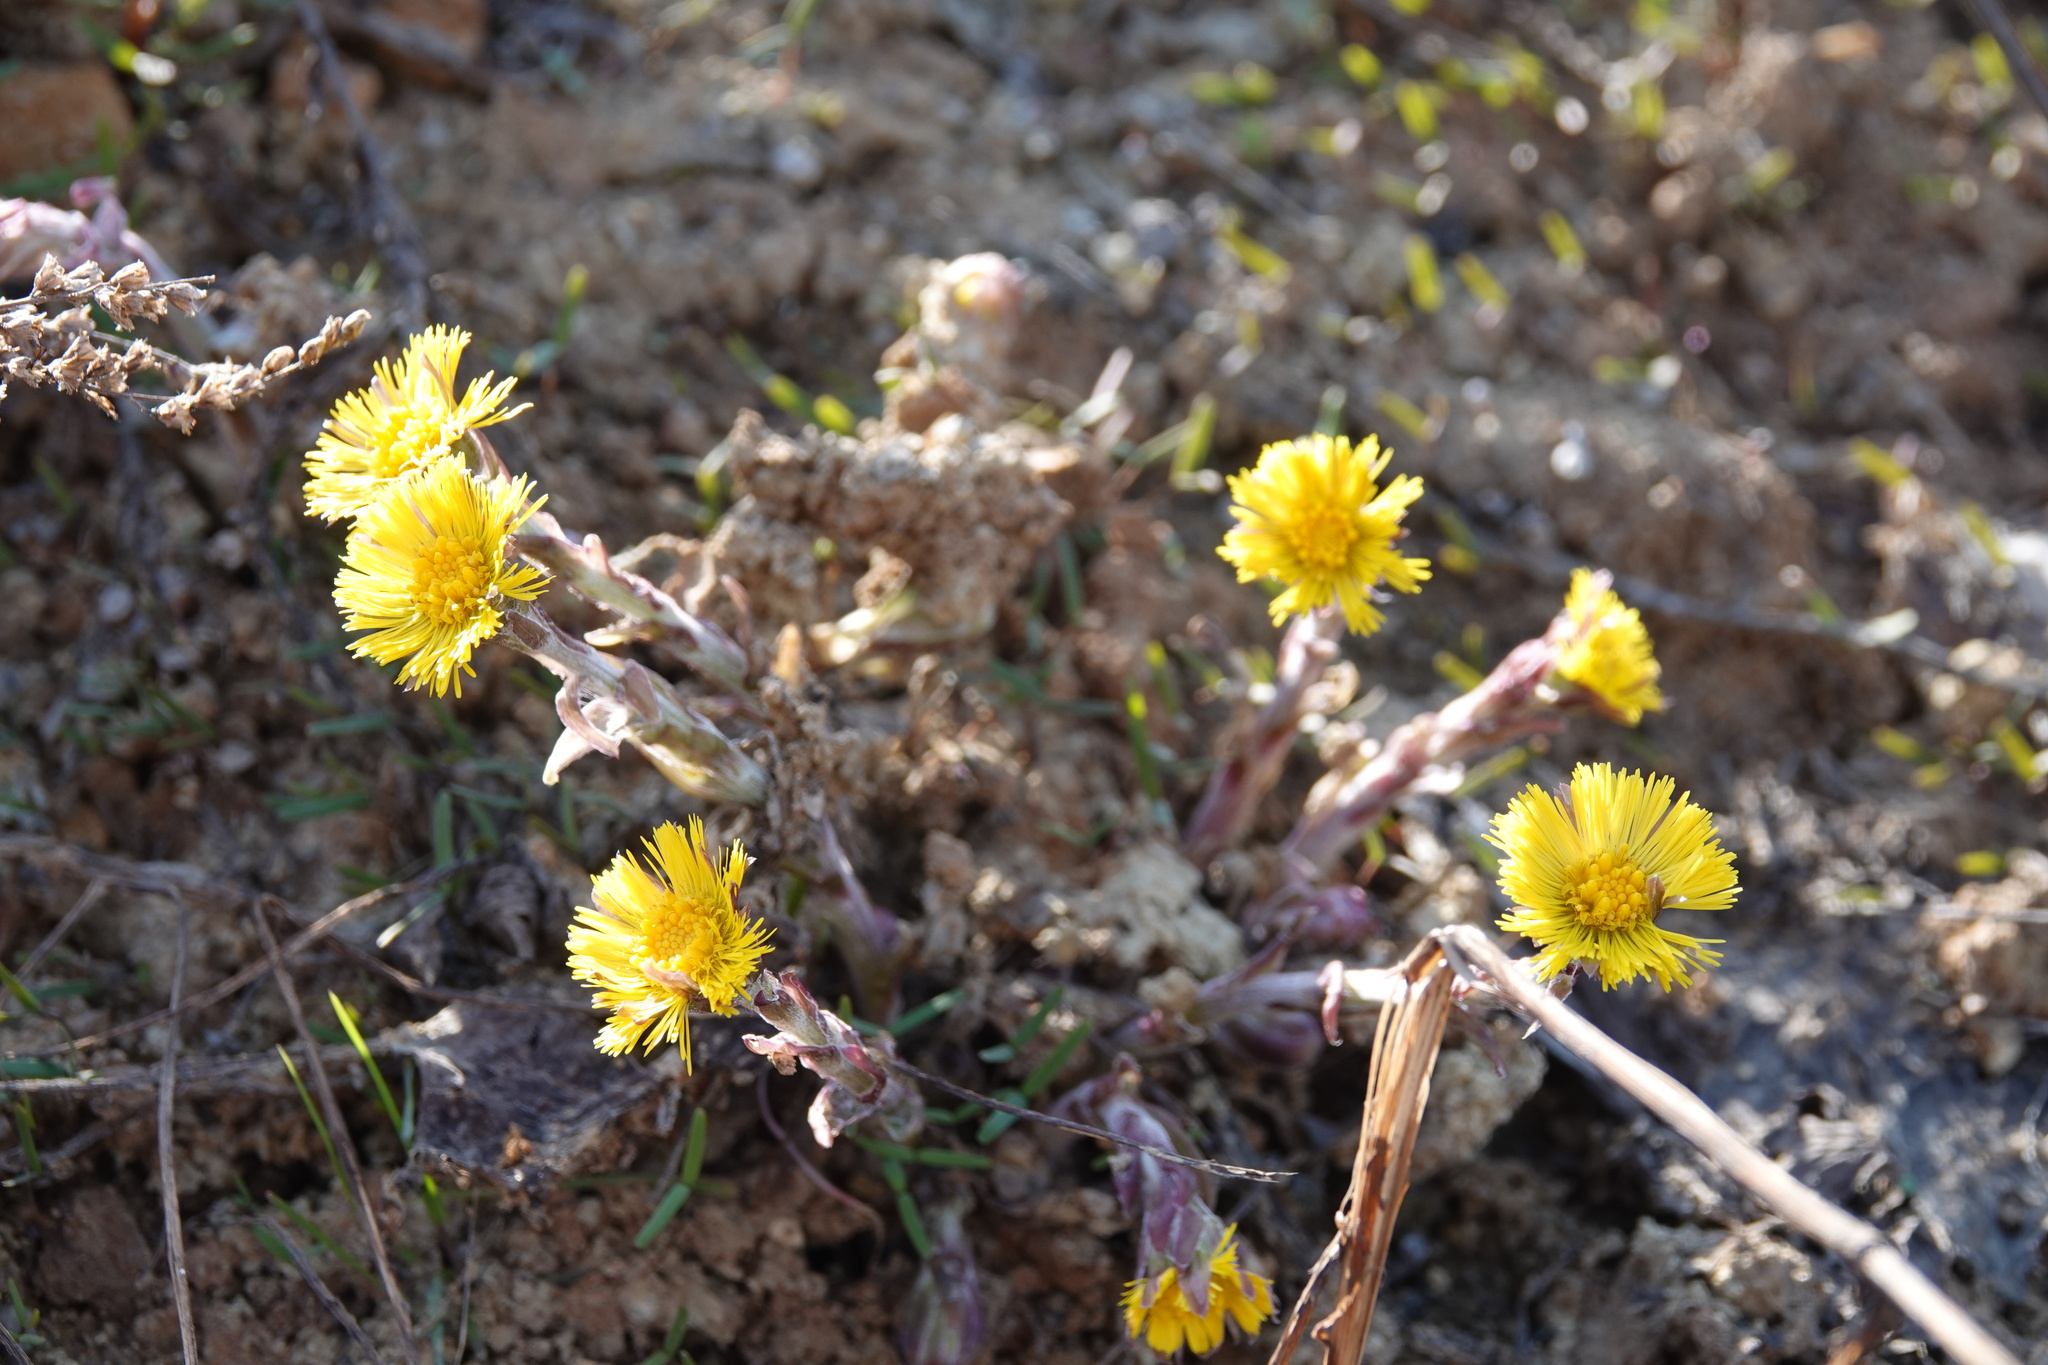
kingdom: Plantae
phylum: Tracheophyta
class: Magnoliopsida
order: Asterales
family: Asteraceae
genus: Tussilago
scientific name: Tussilago farfara
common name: Coltsfoot
